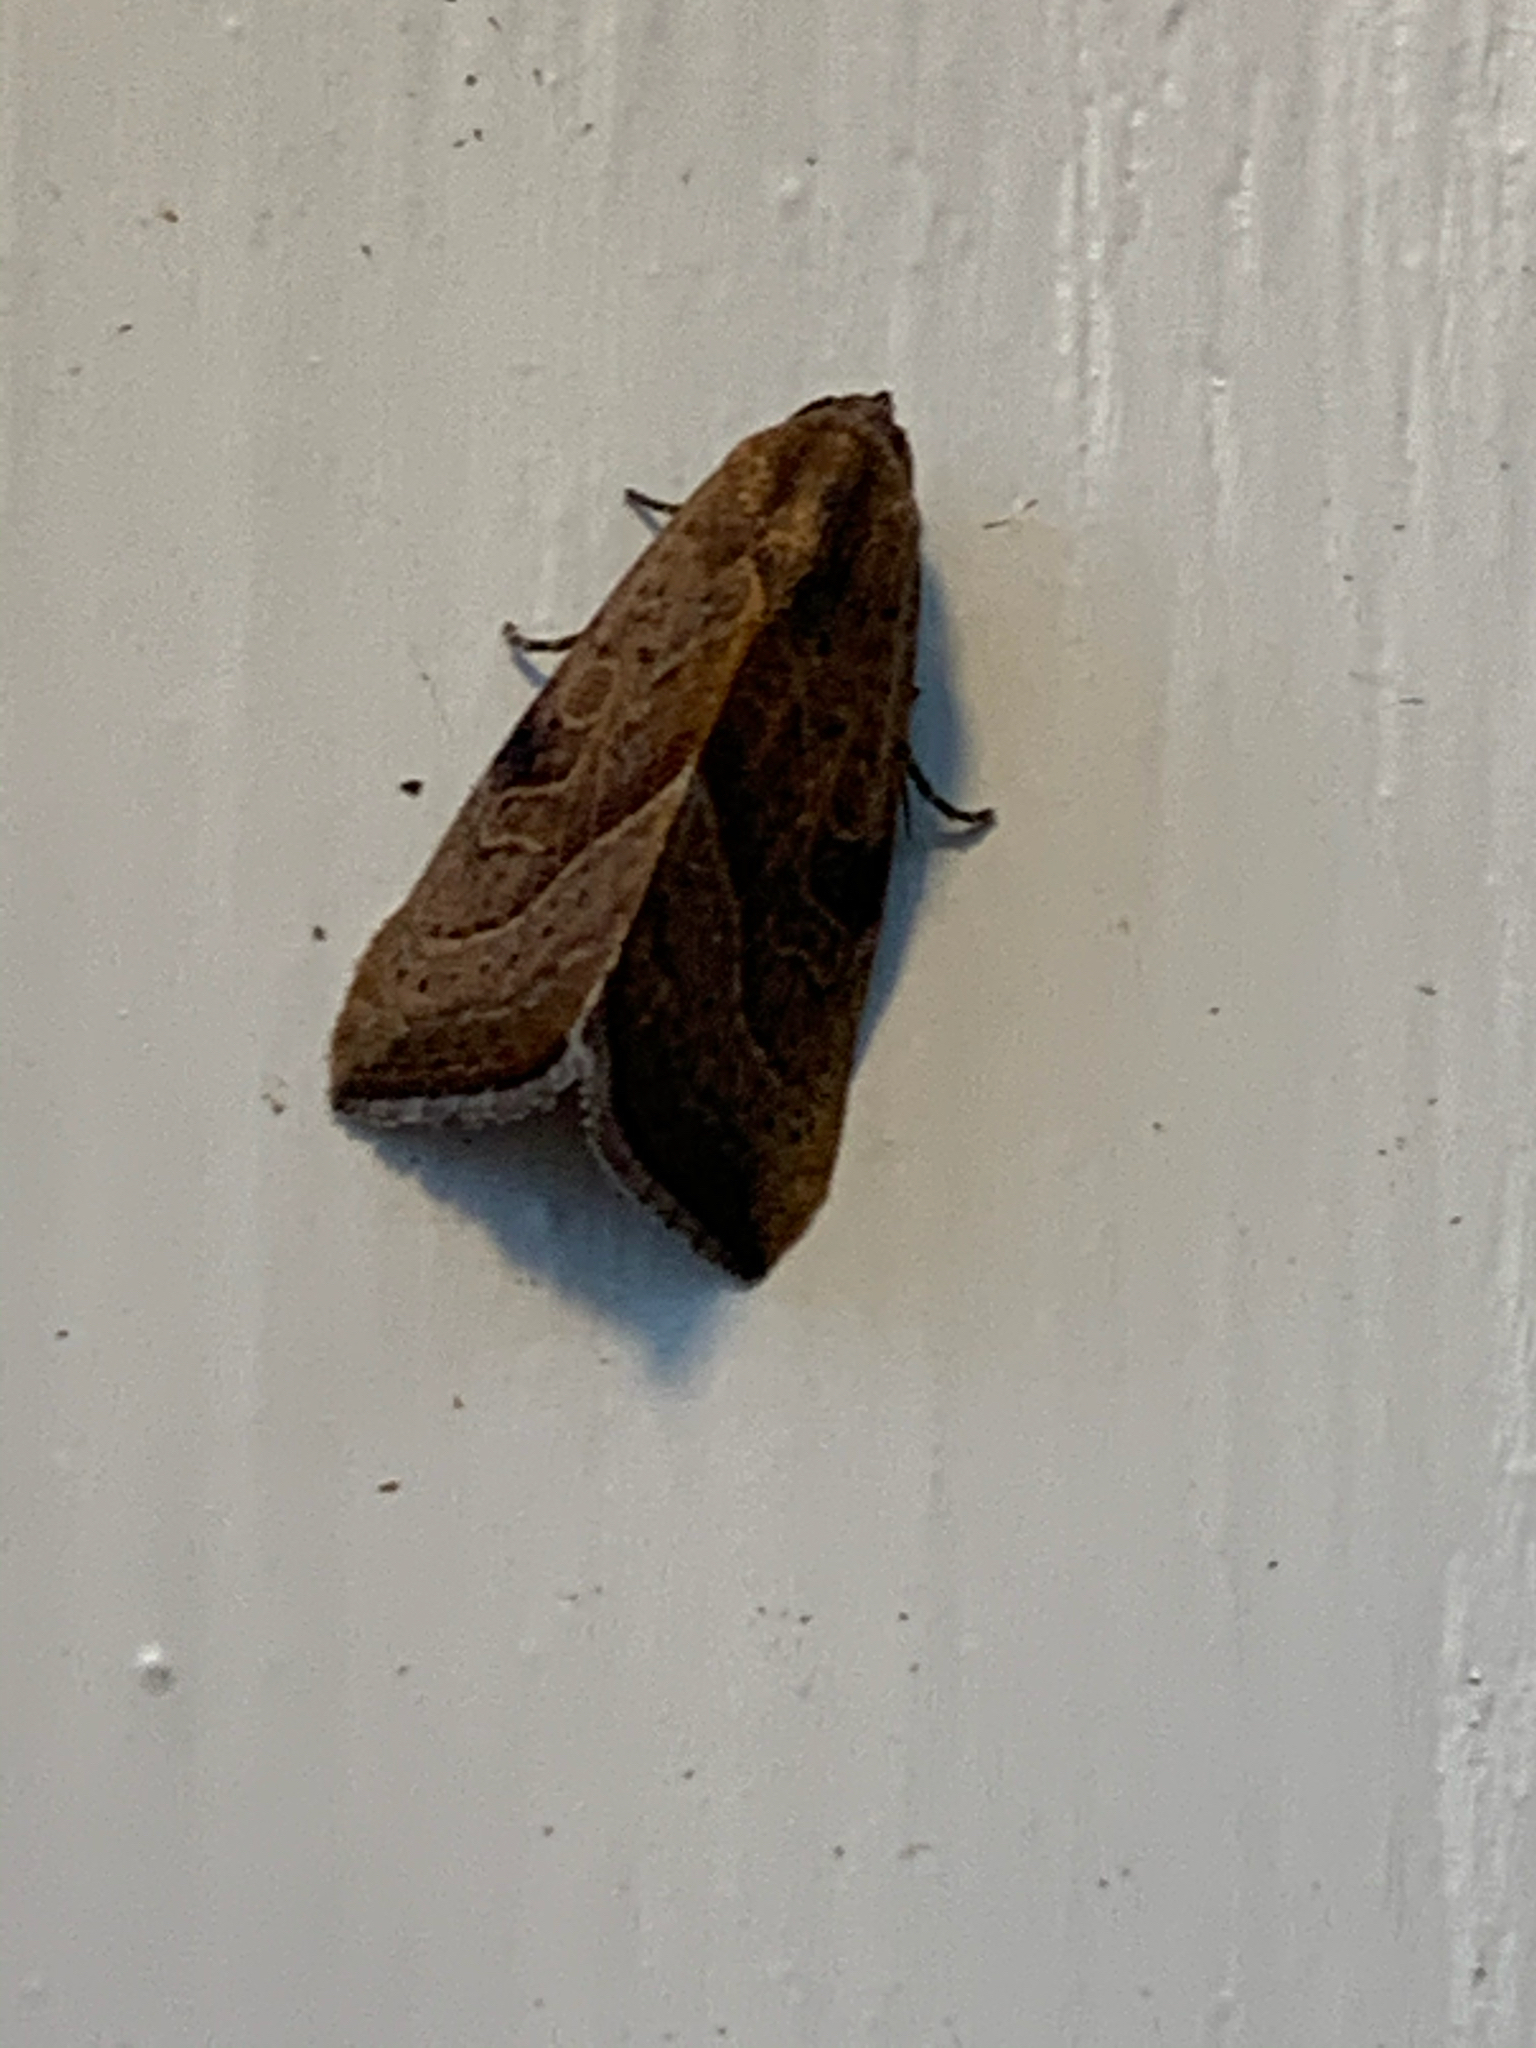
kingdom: Animalia
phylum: Arthropoda
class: Insecta
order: Lepidoptera
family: Noctuidae
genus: Galgula
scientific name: Galgula partita
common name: Wedgeling
